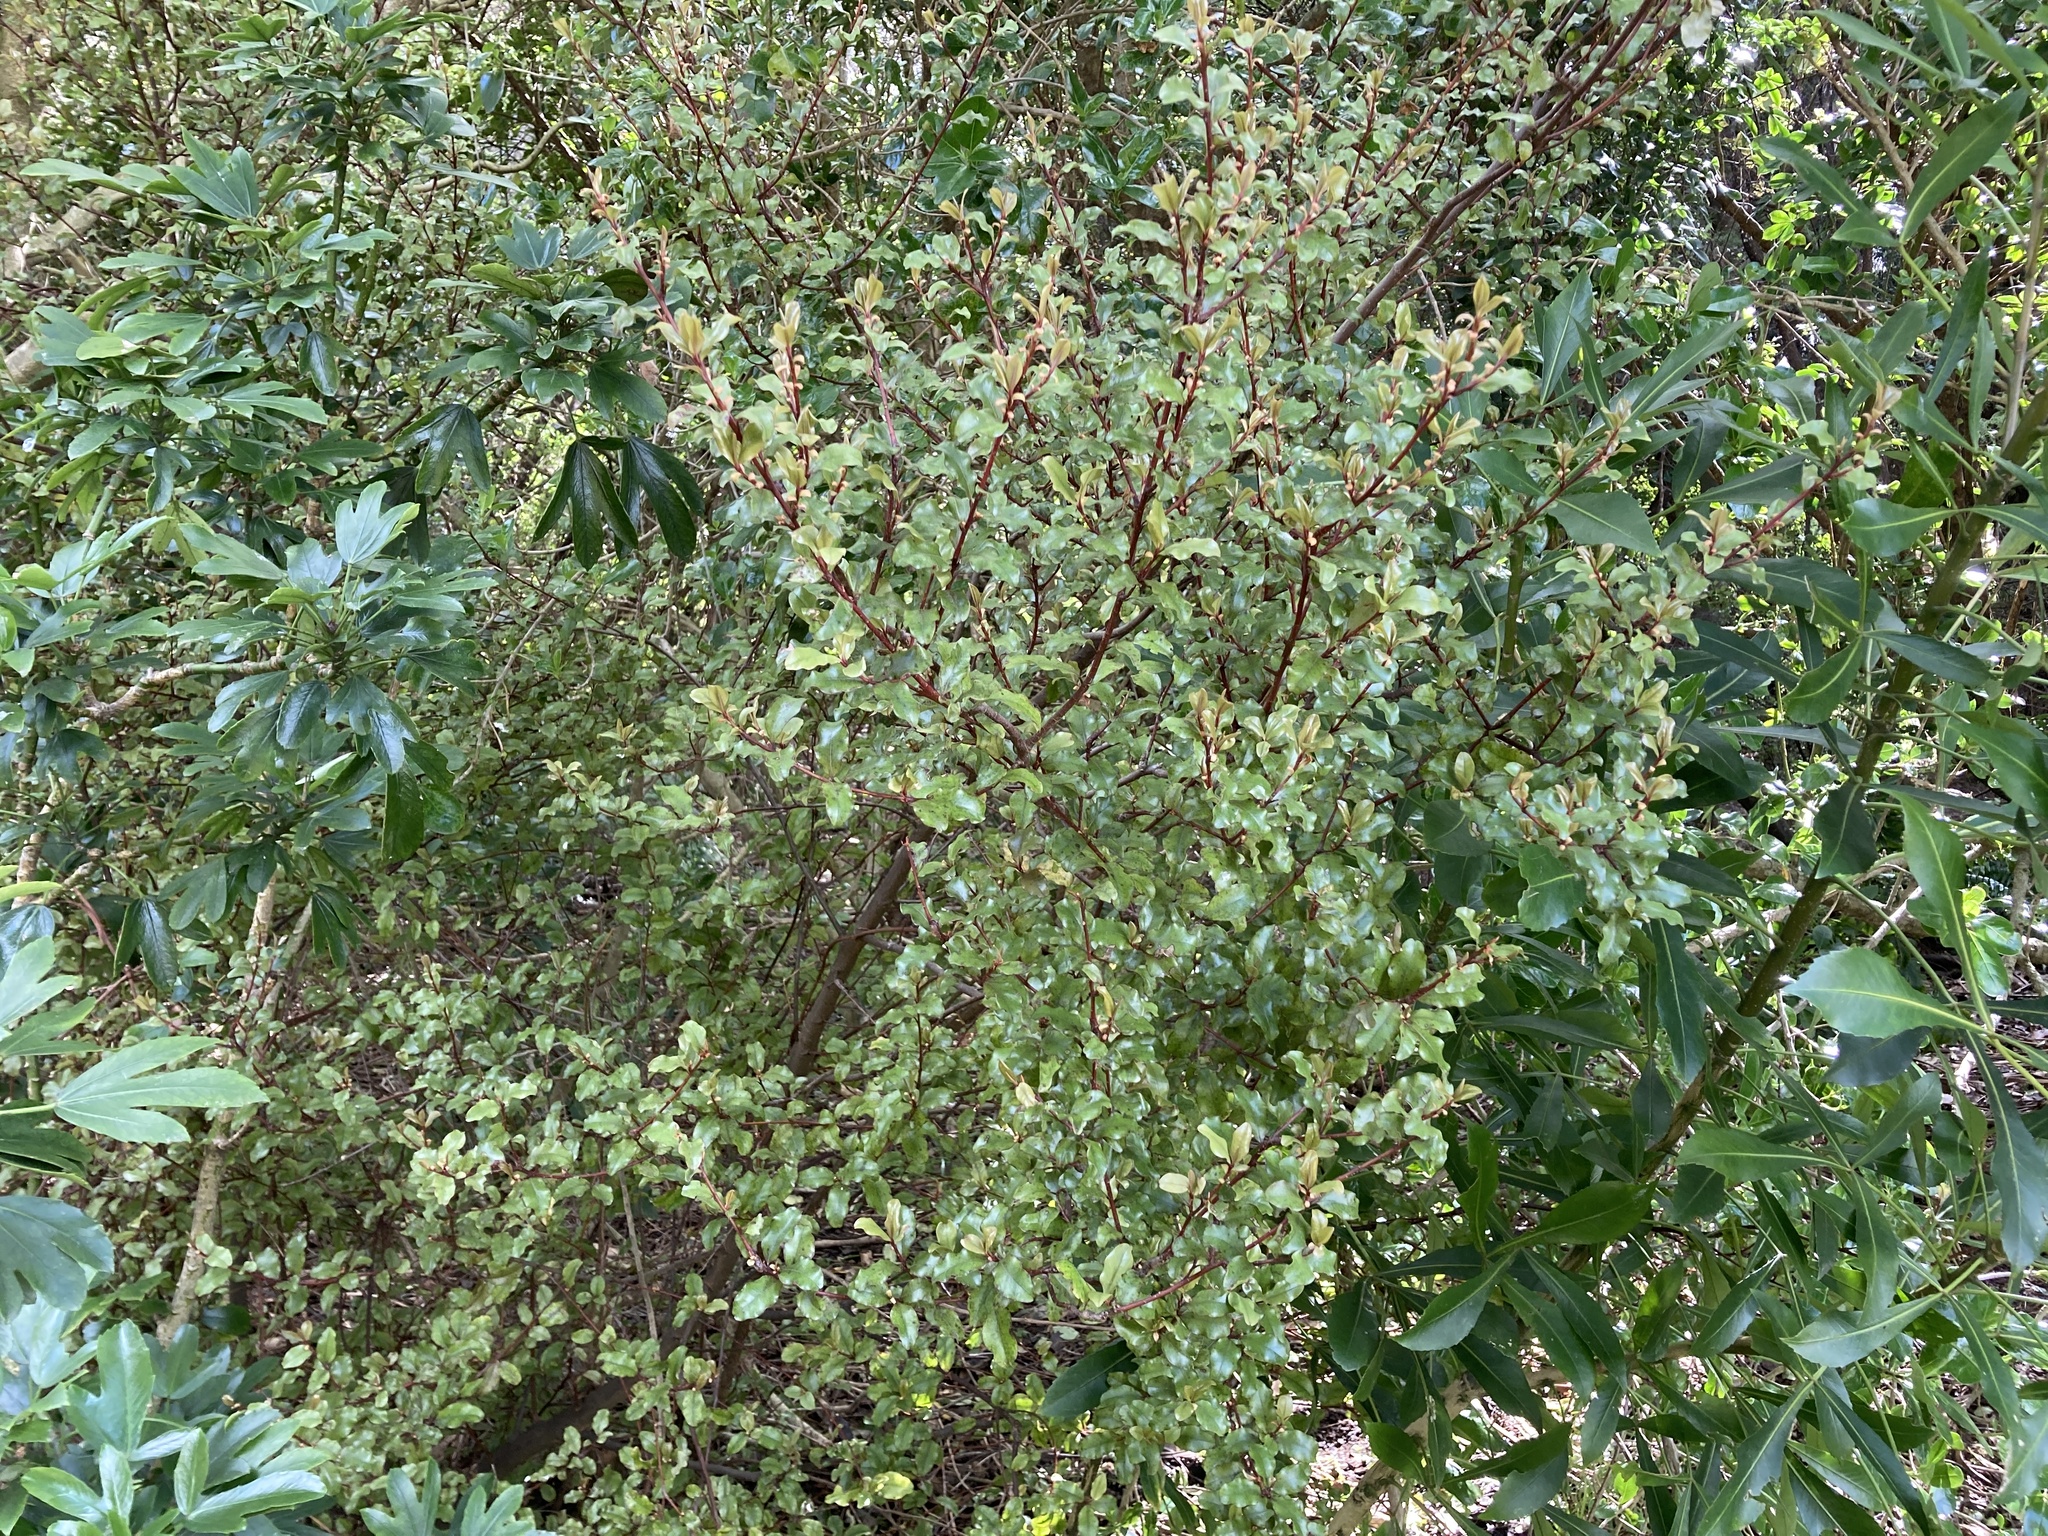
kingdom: Plantae
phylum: Tracheophyta
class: Magnoliopsida
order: Ericales
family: Primulaceae
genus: Myrsine
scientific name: Myrsine australis
